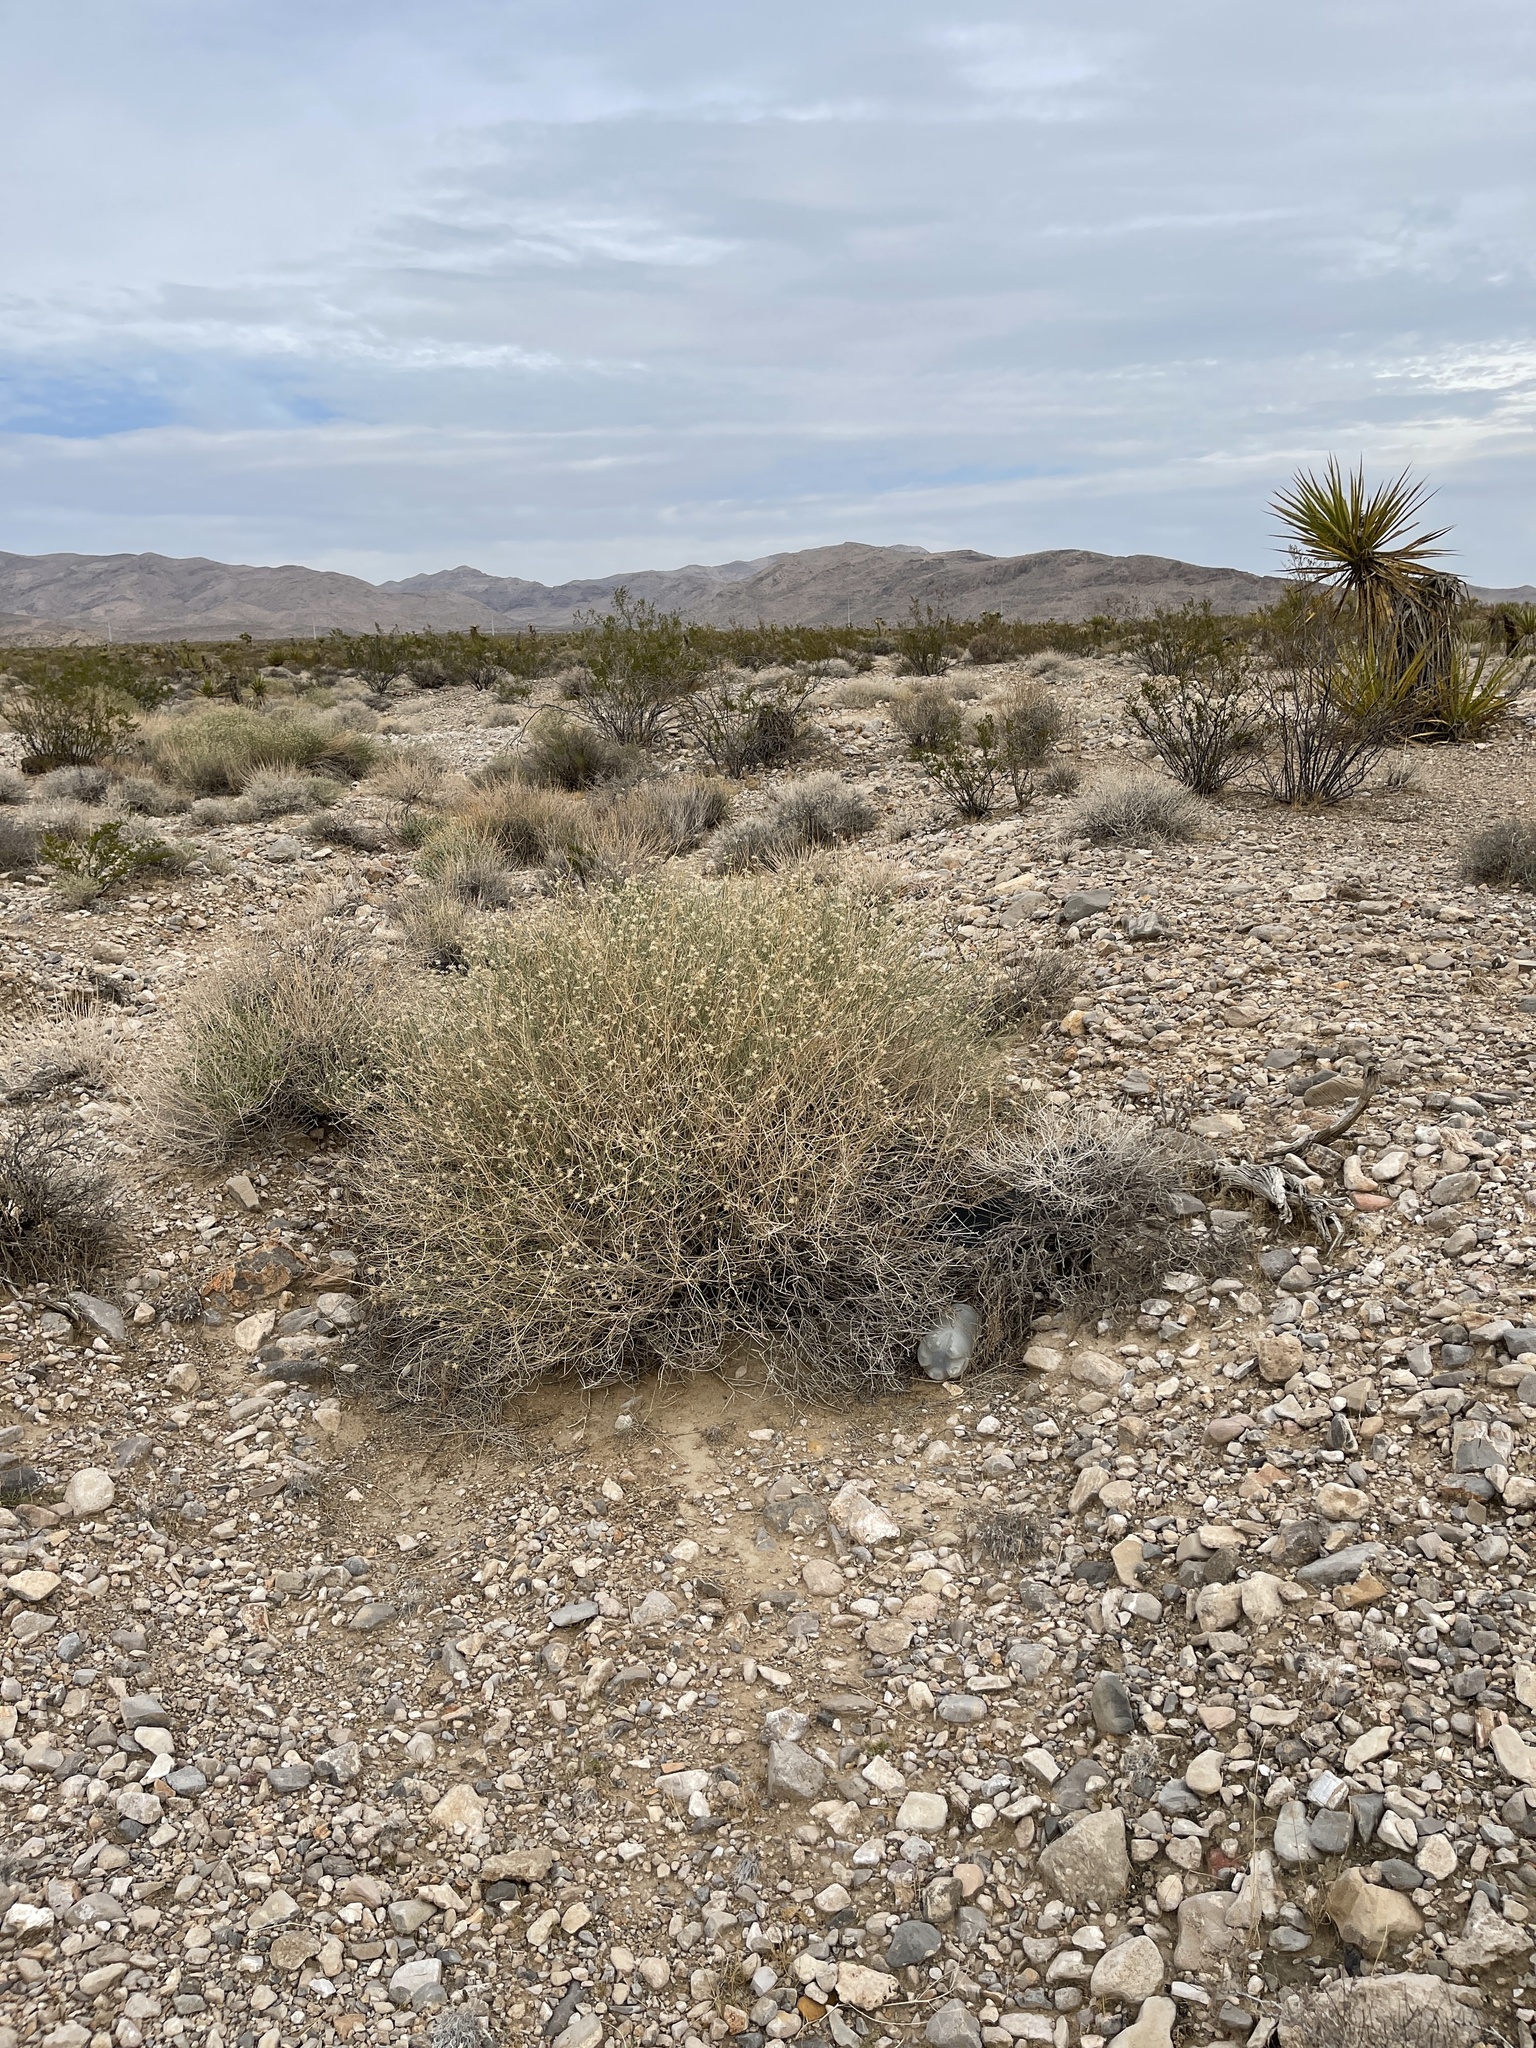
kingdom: Plantae
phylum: Tracheophyta
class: Magnoliopsida
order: Asterales
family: Asteraceae
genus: Bebbia
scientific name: Bebbia juncea
